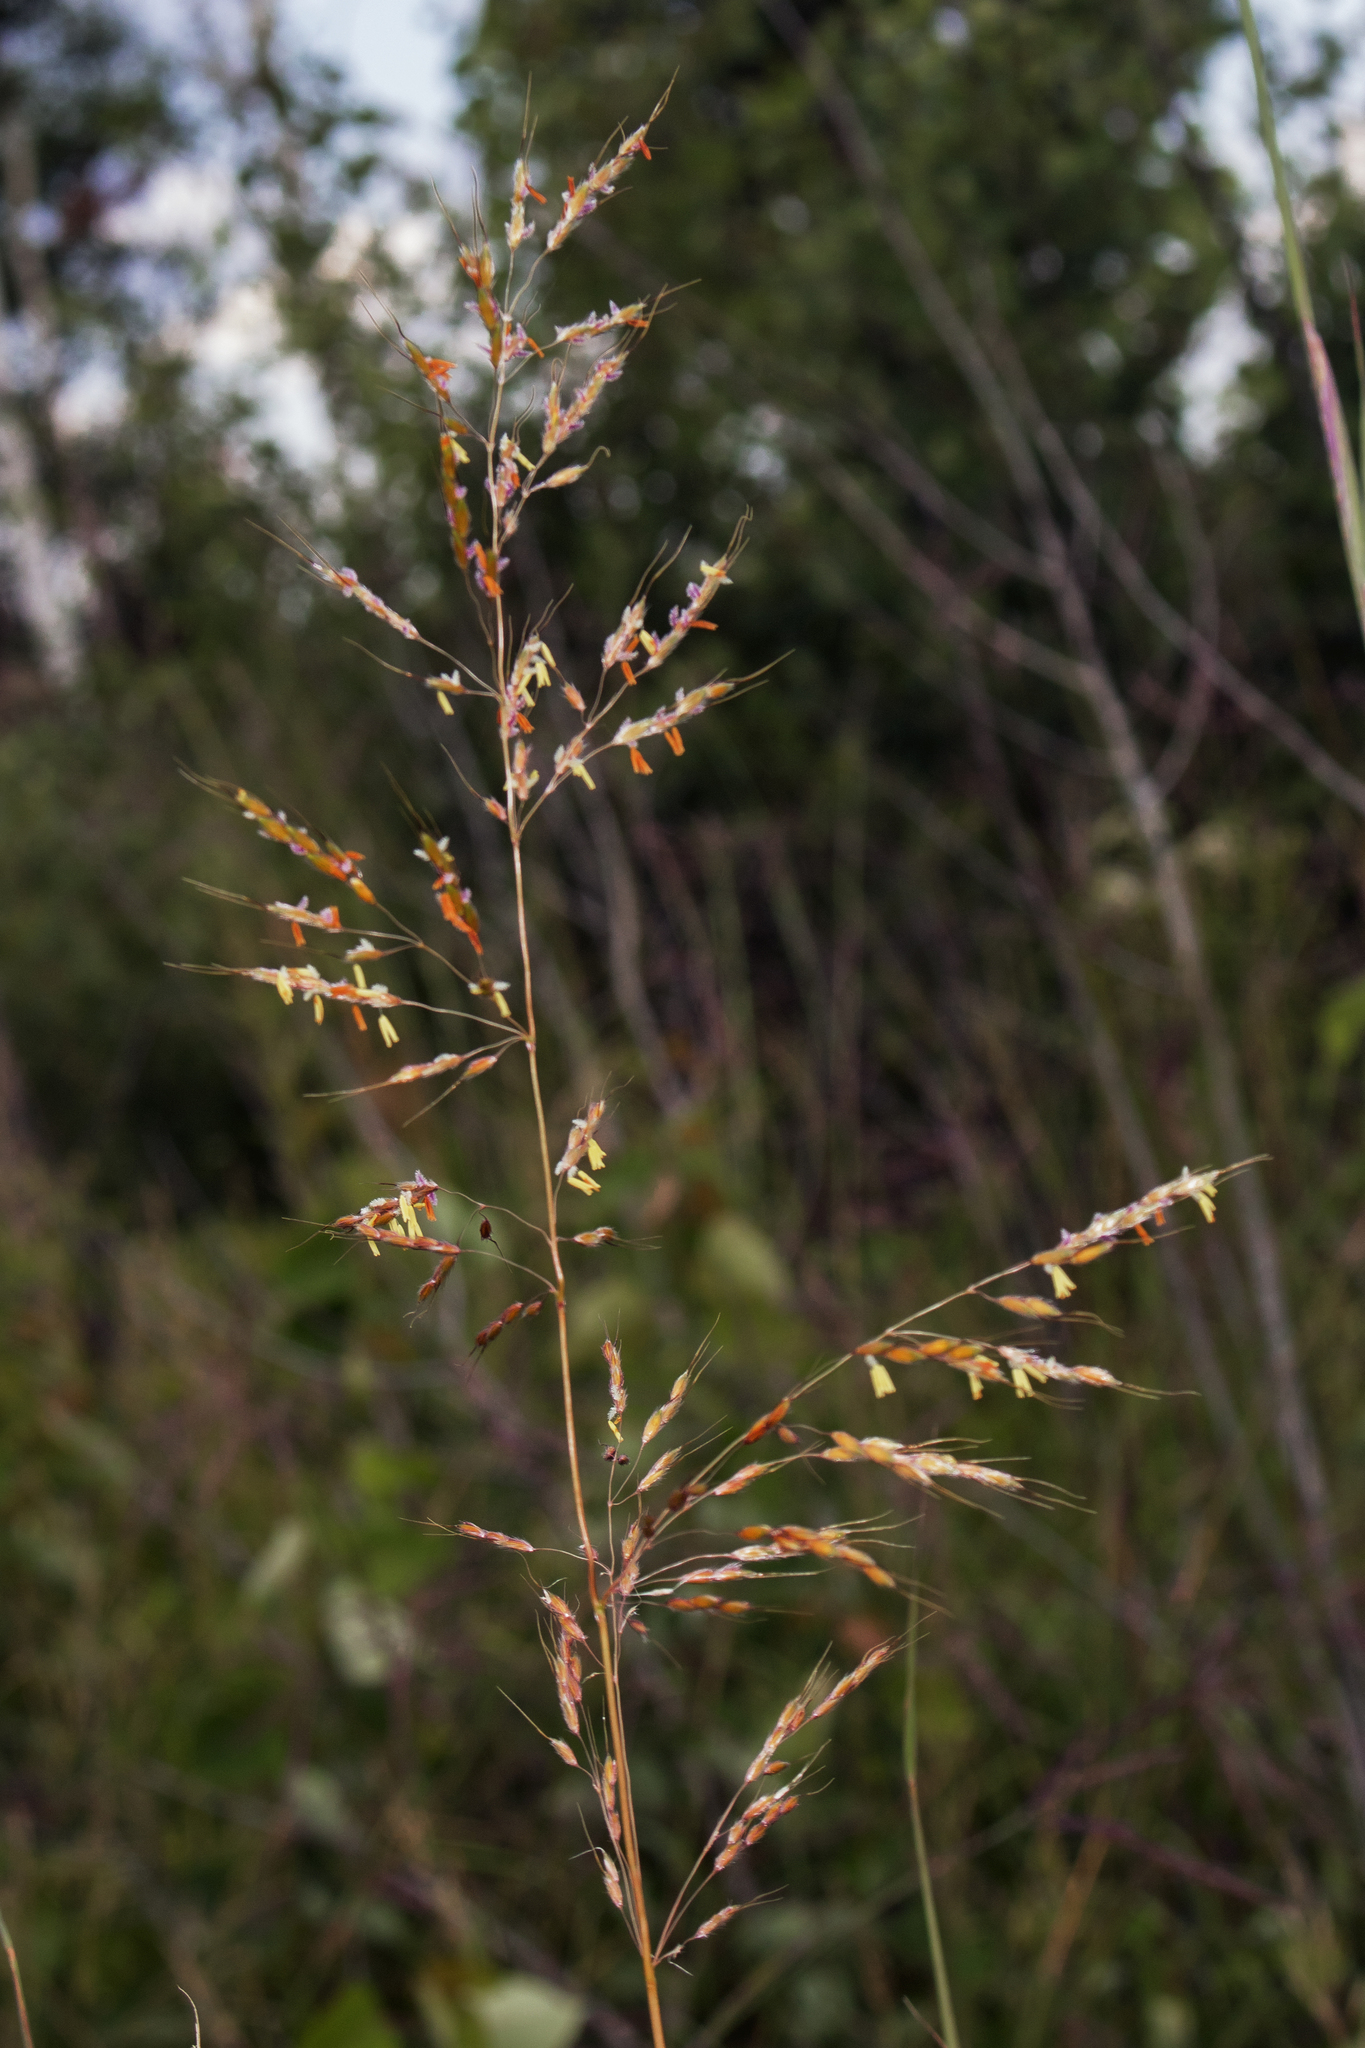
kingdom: Plantae
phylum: Tracheophyta
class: Liliopsida
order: Poales
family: Poaceae
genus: Sorghastrum
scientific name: Sorghastrum nutans
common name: Indian grass
